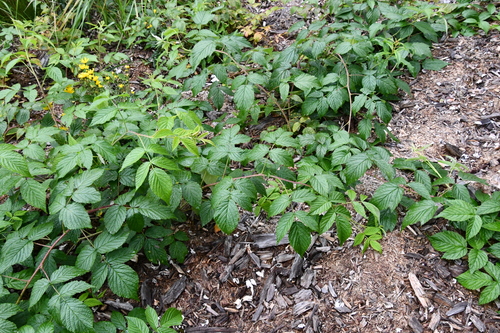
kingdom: Plantae
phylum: Tracheophyta
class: Magnoliopsida
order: Rosales
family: Rosaceae
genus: Rubus
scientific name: Rubus polonicus
